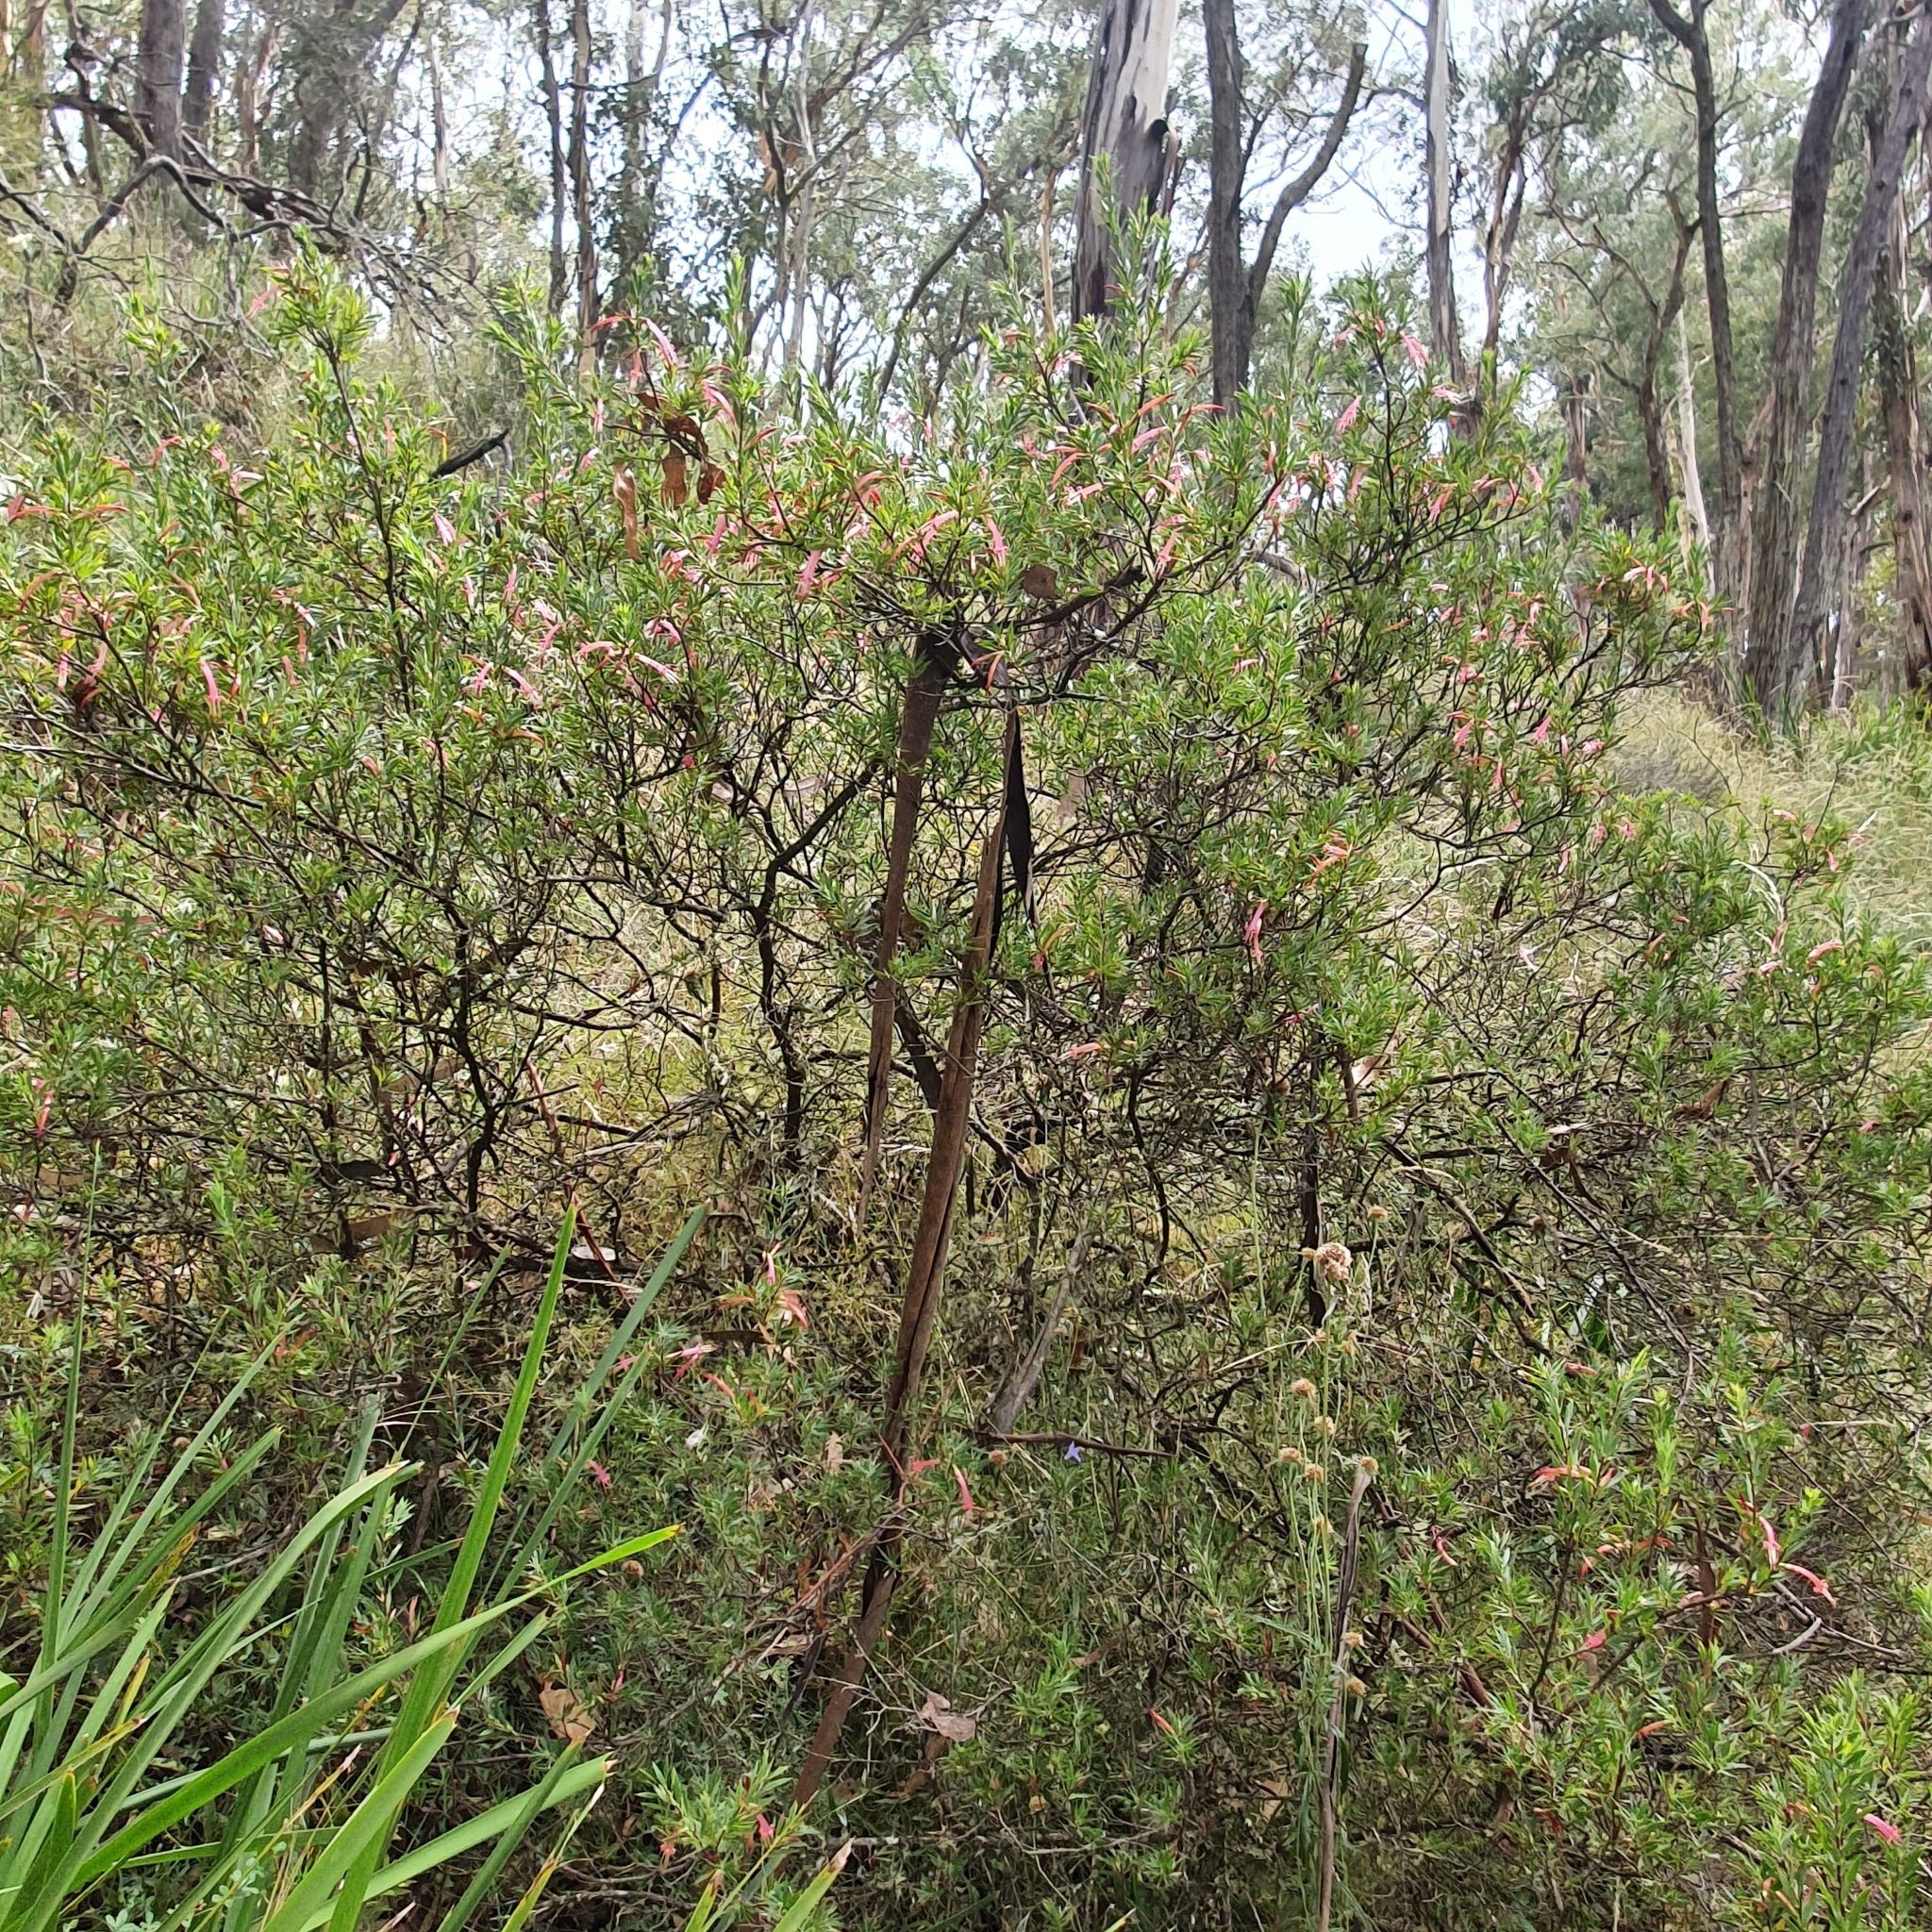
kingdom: Plantae
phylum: Tracheophyta
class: Magnoliopsida
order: Ericales
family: Ericaceae
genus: Styphelia
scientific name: Styphelia triflora
